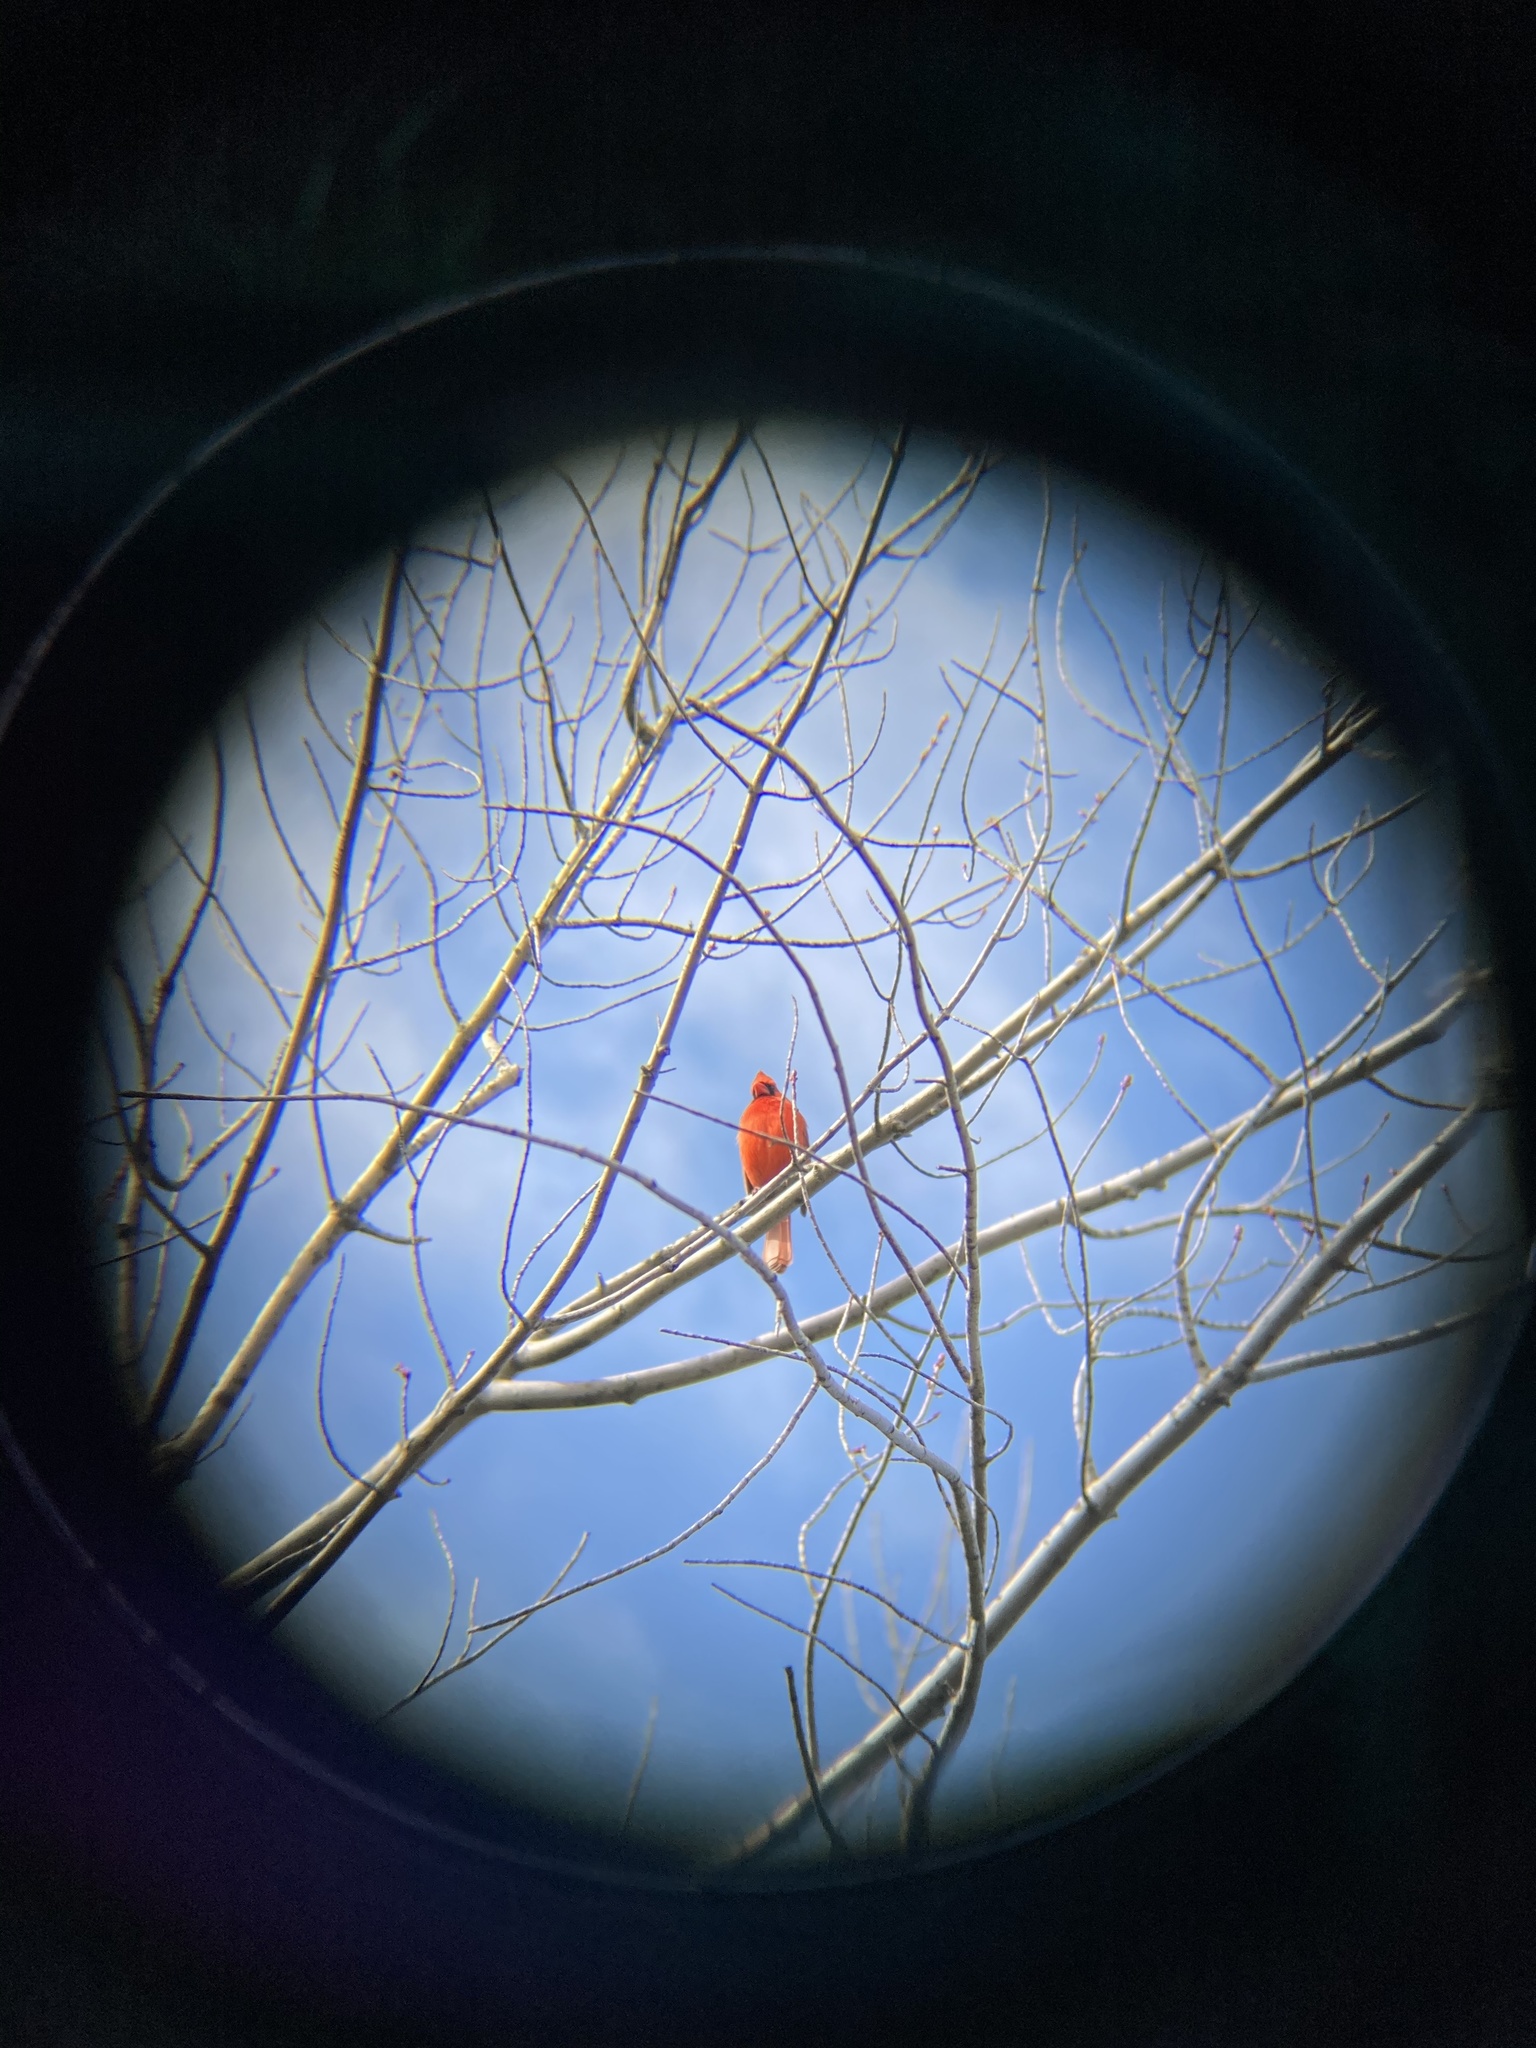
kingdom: Animalia
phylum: Chordata
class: Aves
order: Passeriformes
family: Cardinalidae
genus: Cardinalis
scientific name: Cardinalis cardinalis
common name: Northern cardinal
